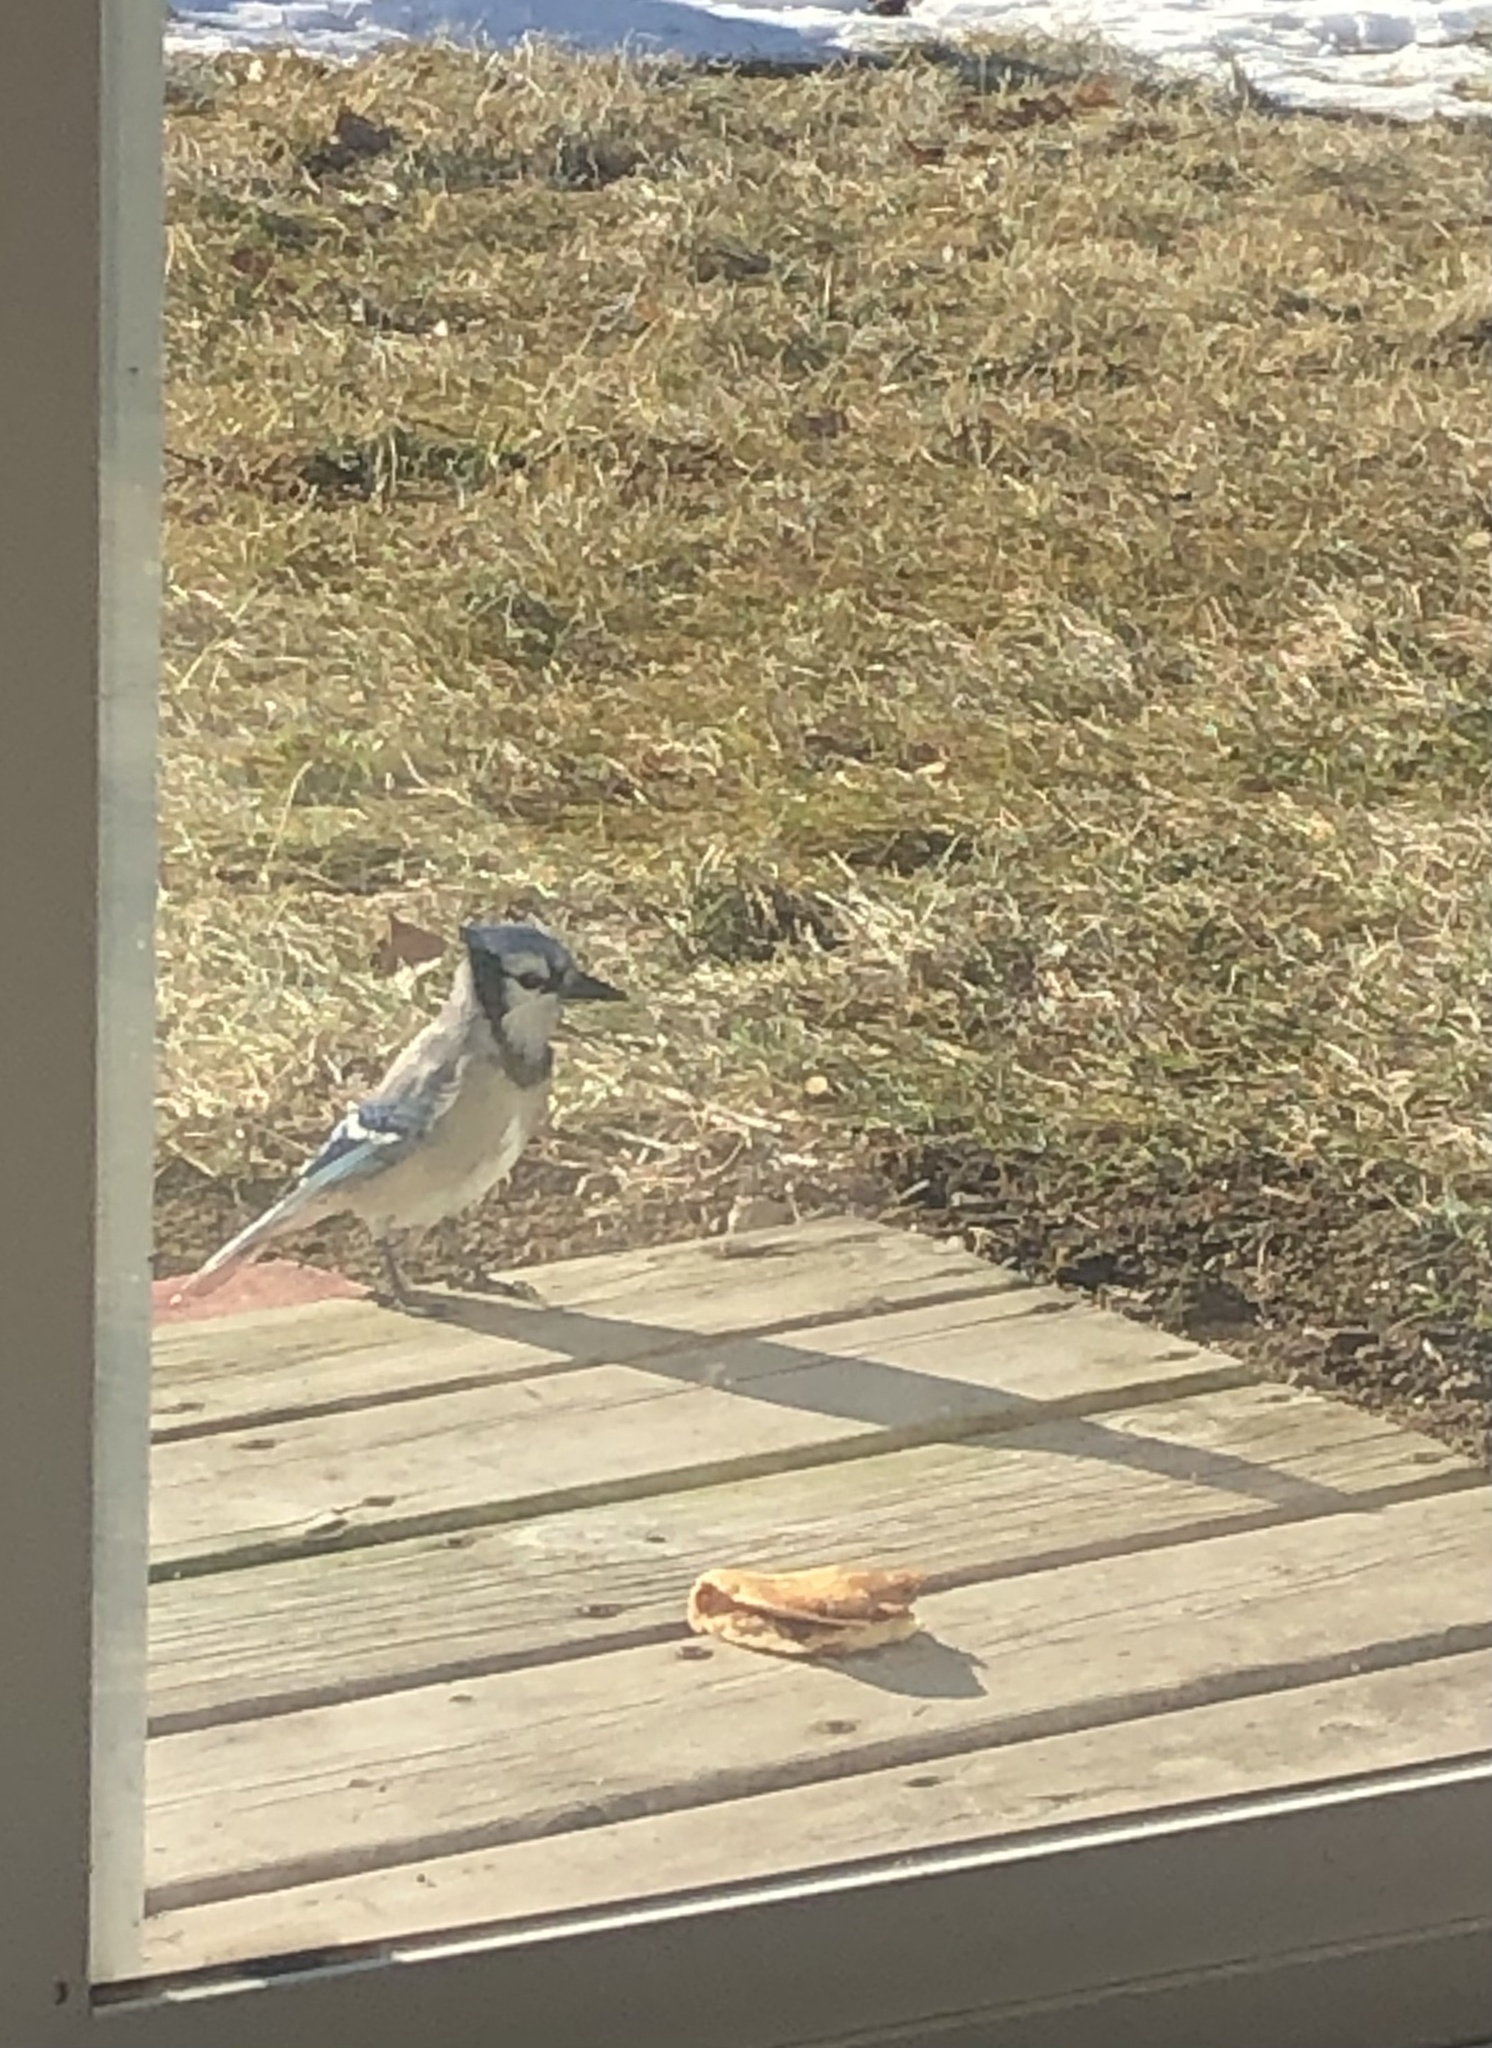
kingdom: Animalia
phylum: Chordata
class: Aves
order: Passeriformes
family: Corvidae
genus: Cyanocitta
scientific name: Cyanocitta cristata
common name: Blue jay
